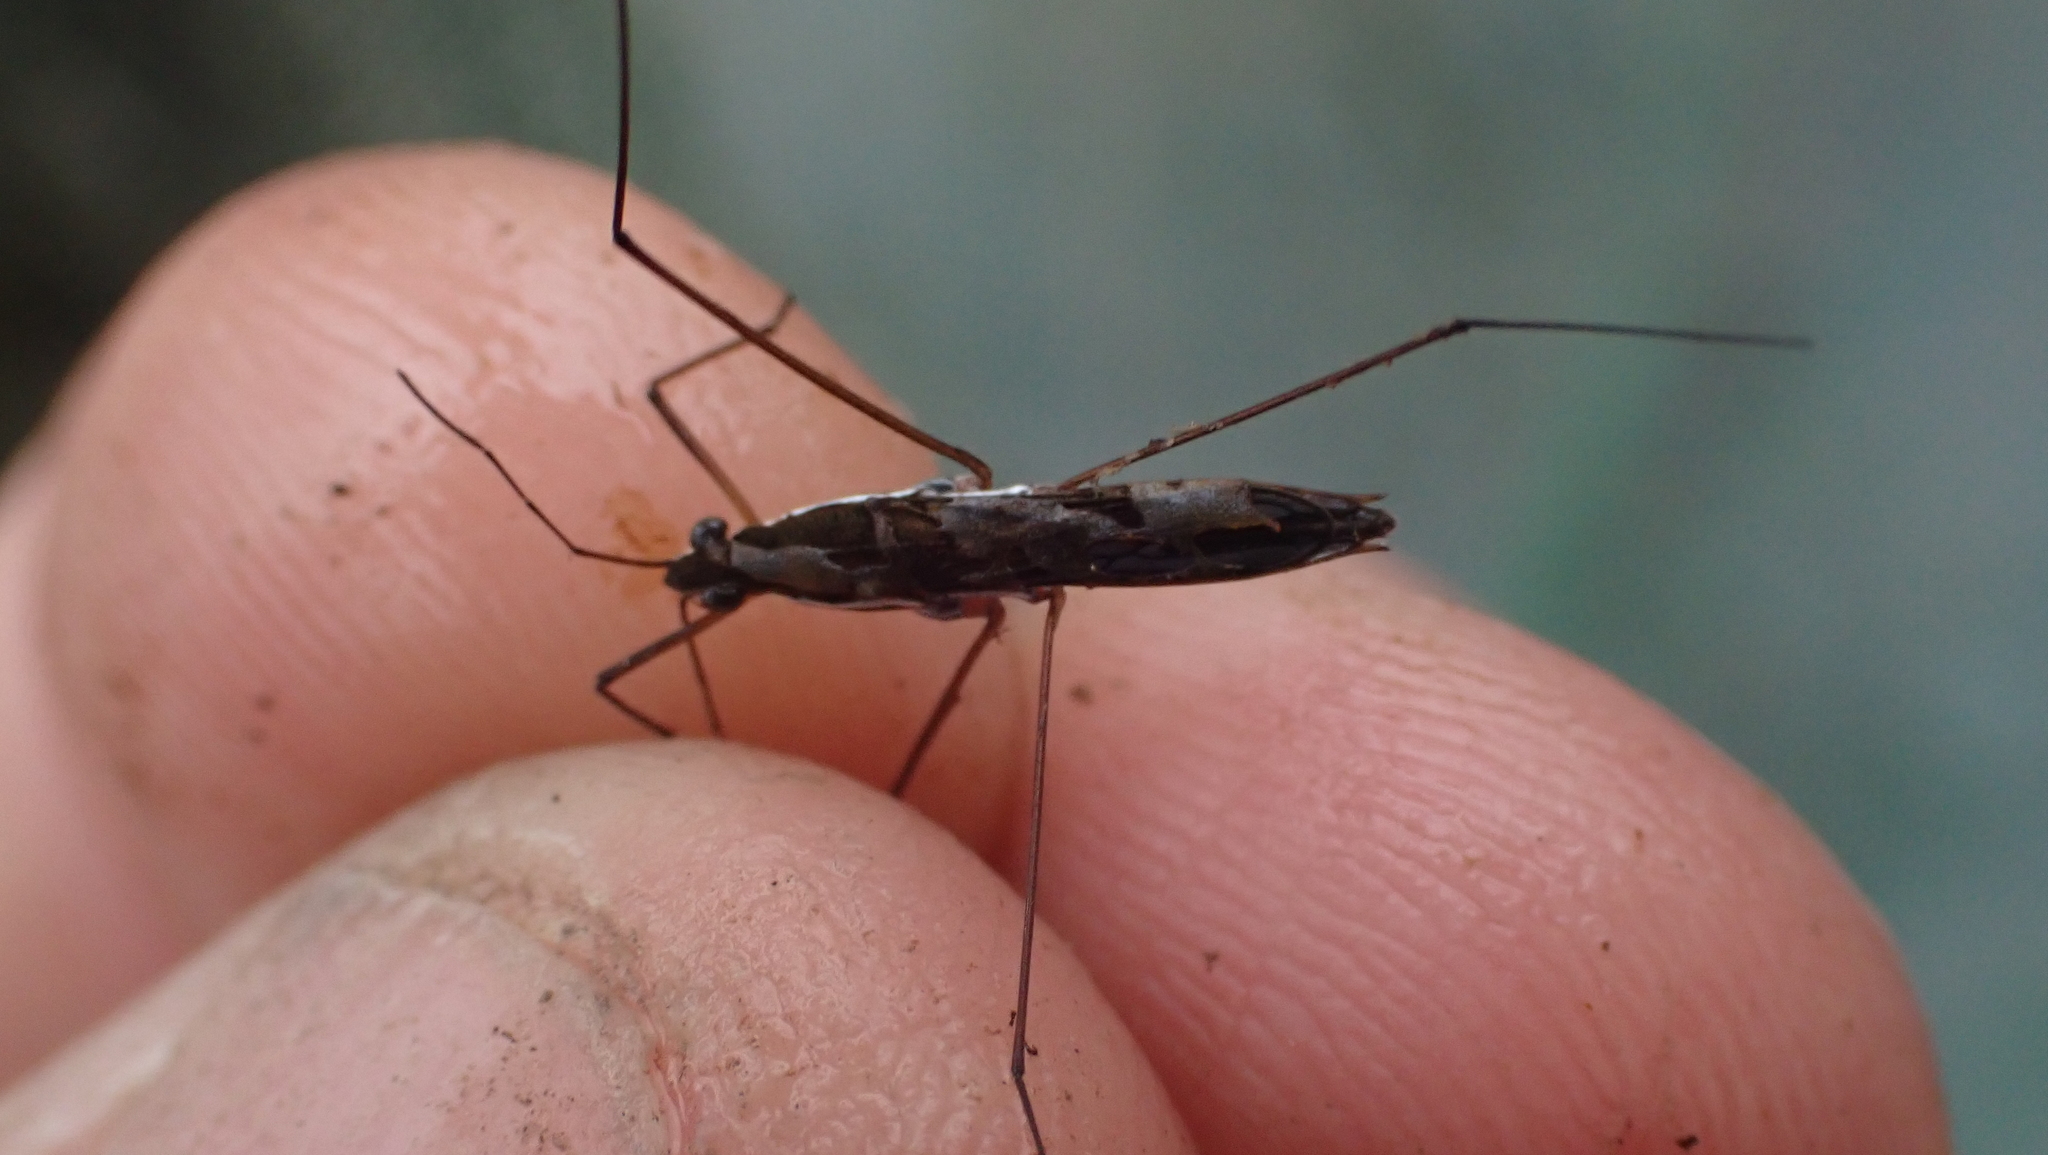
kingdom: Animalia
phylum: Arthropoda
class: Insecta
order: Hemiptera
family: Gerridae
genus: Limnoporus
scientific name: Limnoporus canaliculatus
